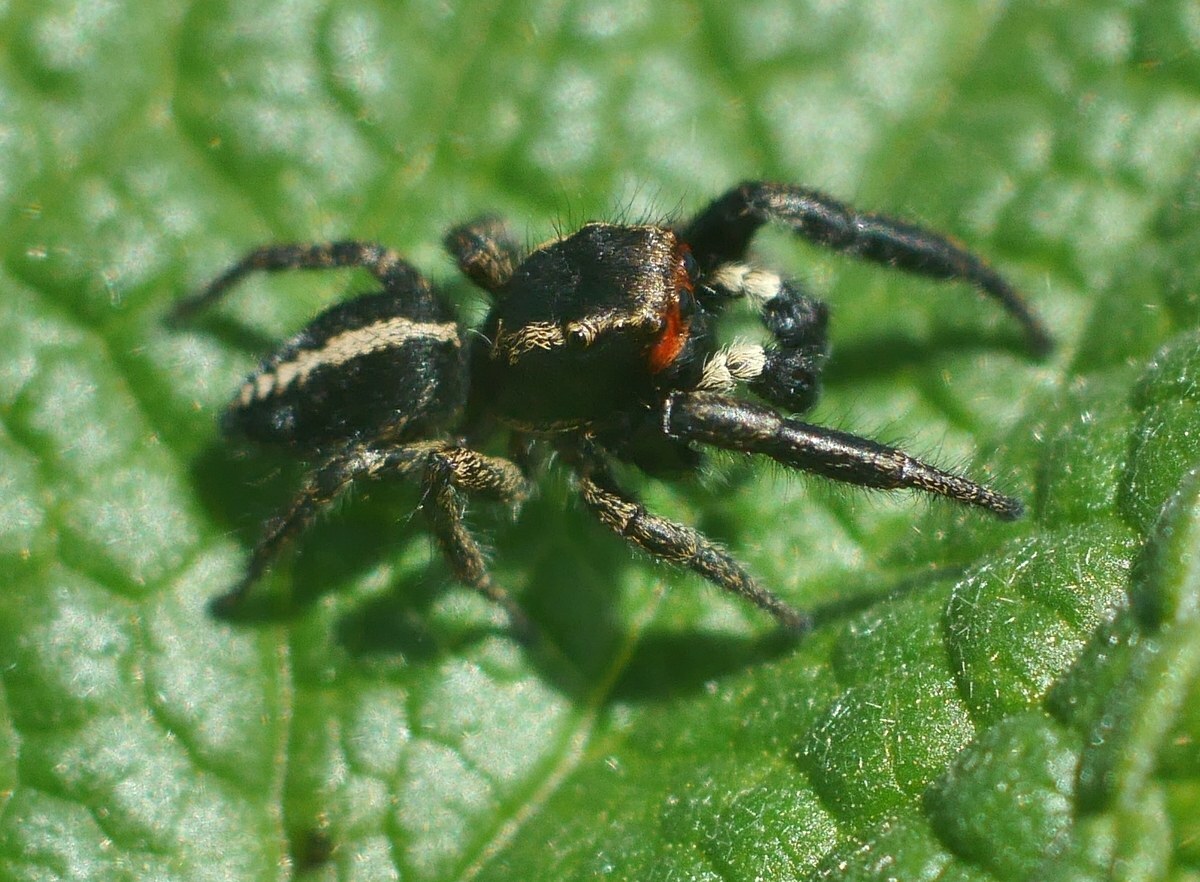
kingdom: Animalia
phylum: Arthropoda
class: Arachnida
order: Araneae
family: Salticidae
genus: Pellenes
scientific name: Pellenes seriatus
